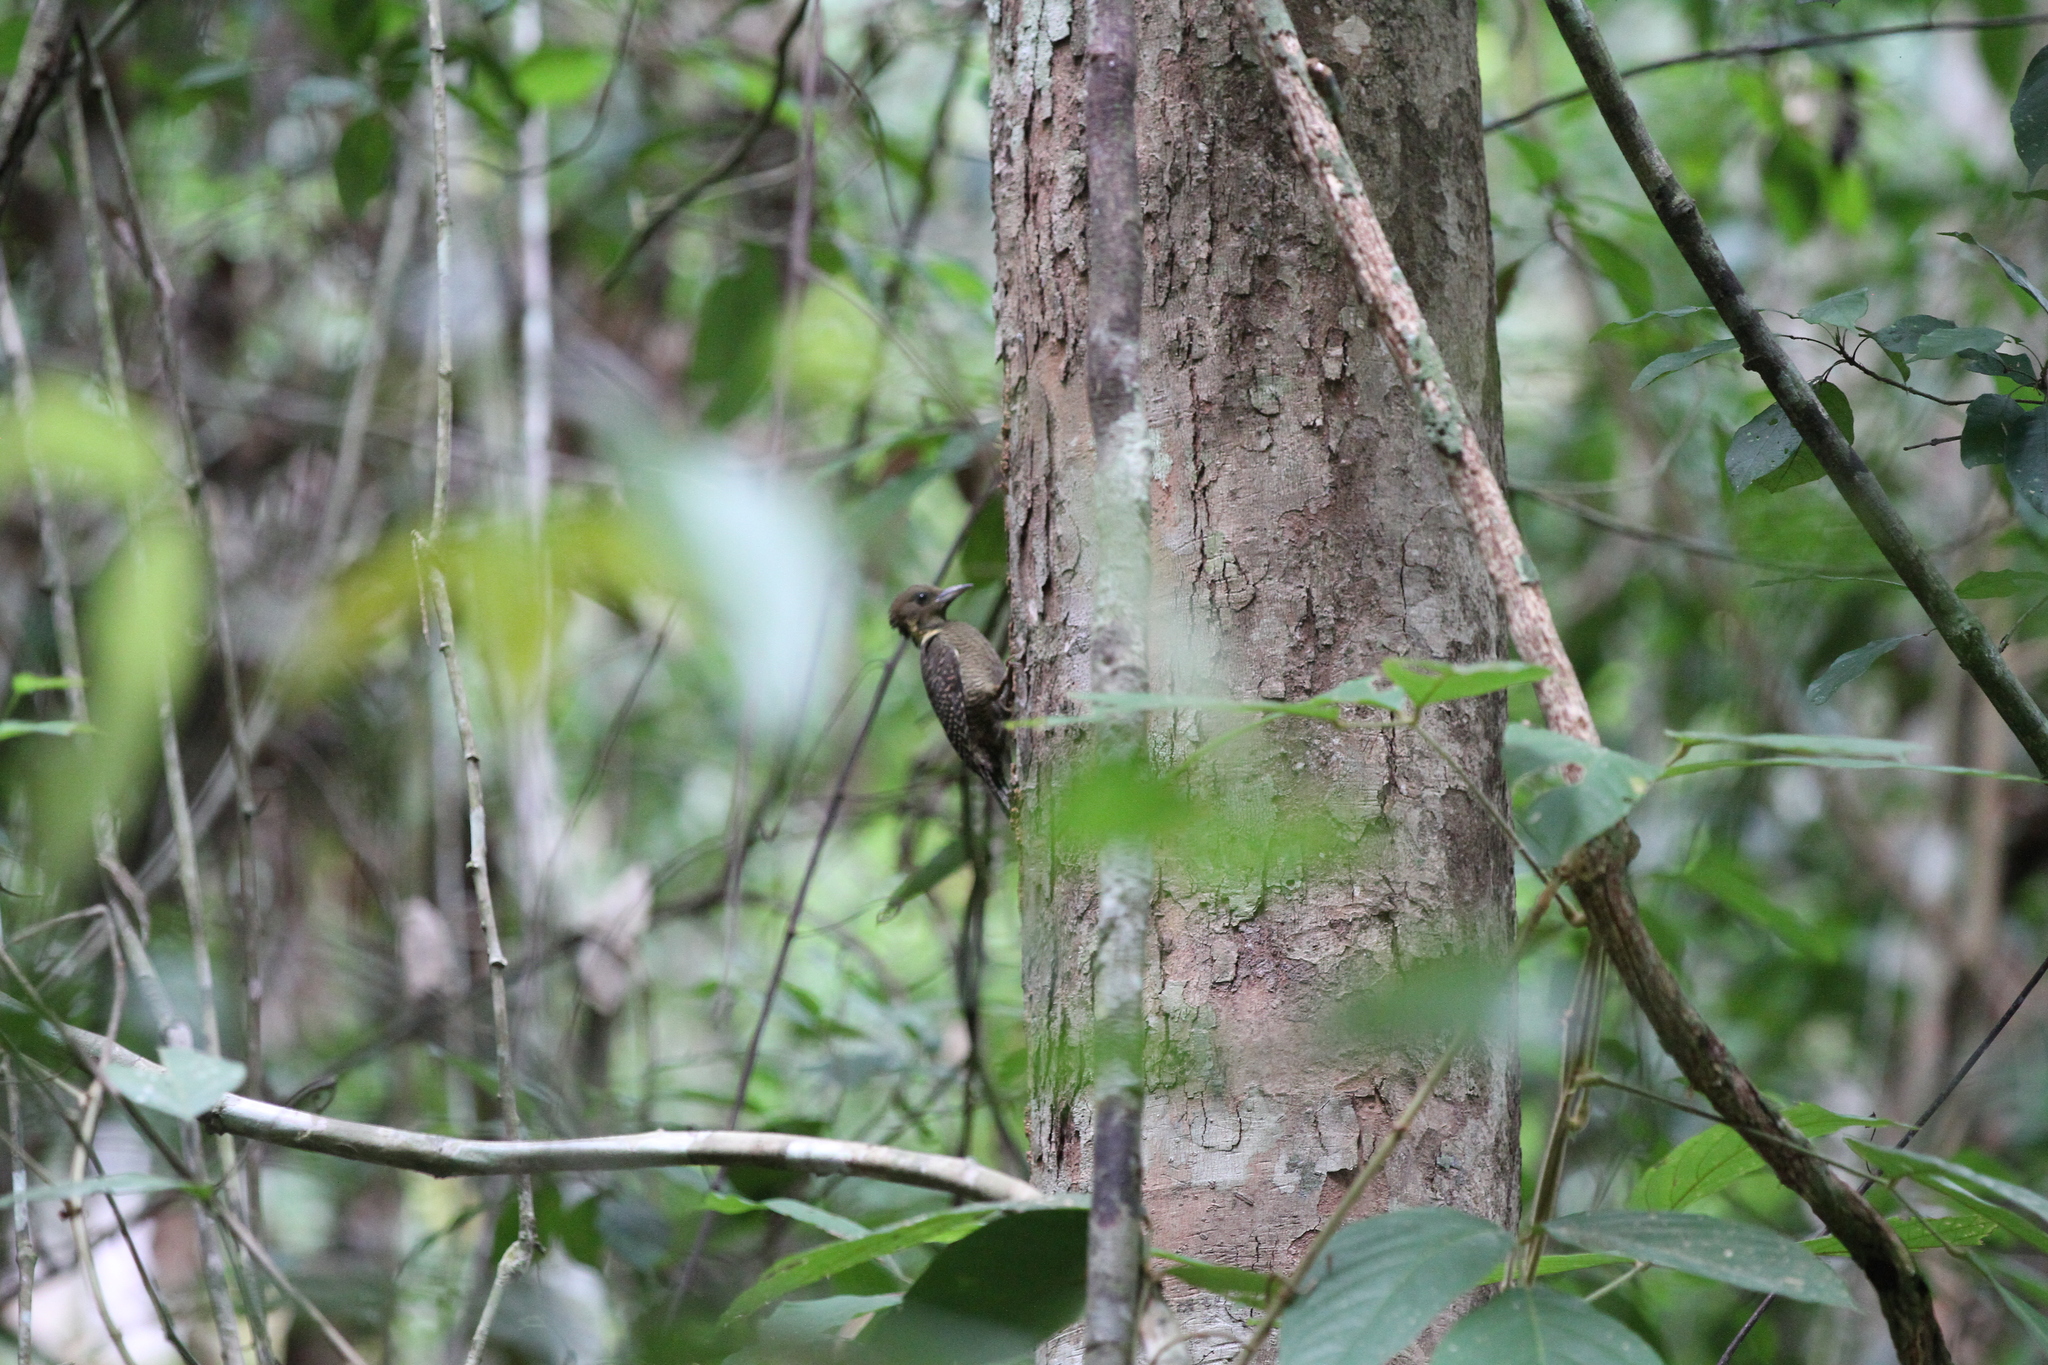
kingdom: Animalia
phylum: Chordata
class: Aves
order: Piciformes
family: Picidae
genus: Meiglyptes
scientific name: Meiglyptes tukki
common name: Buff-necked woodpecker
